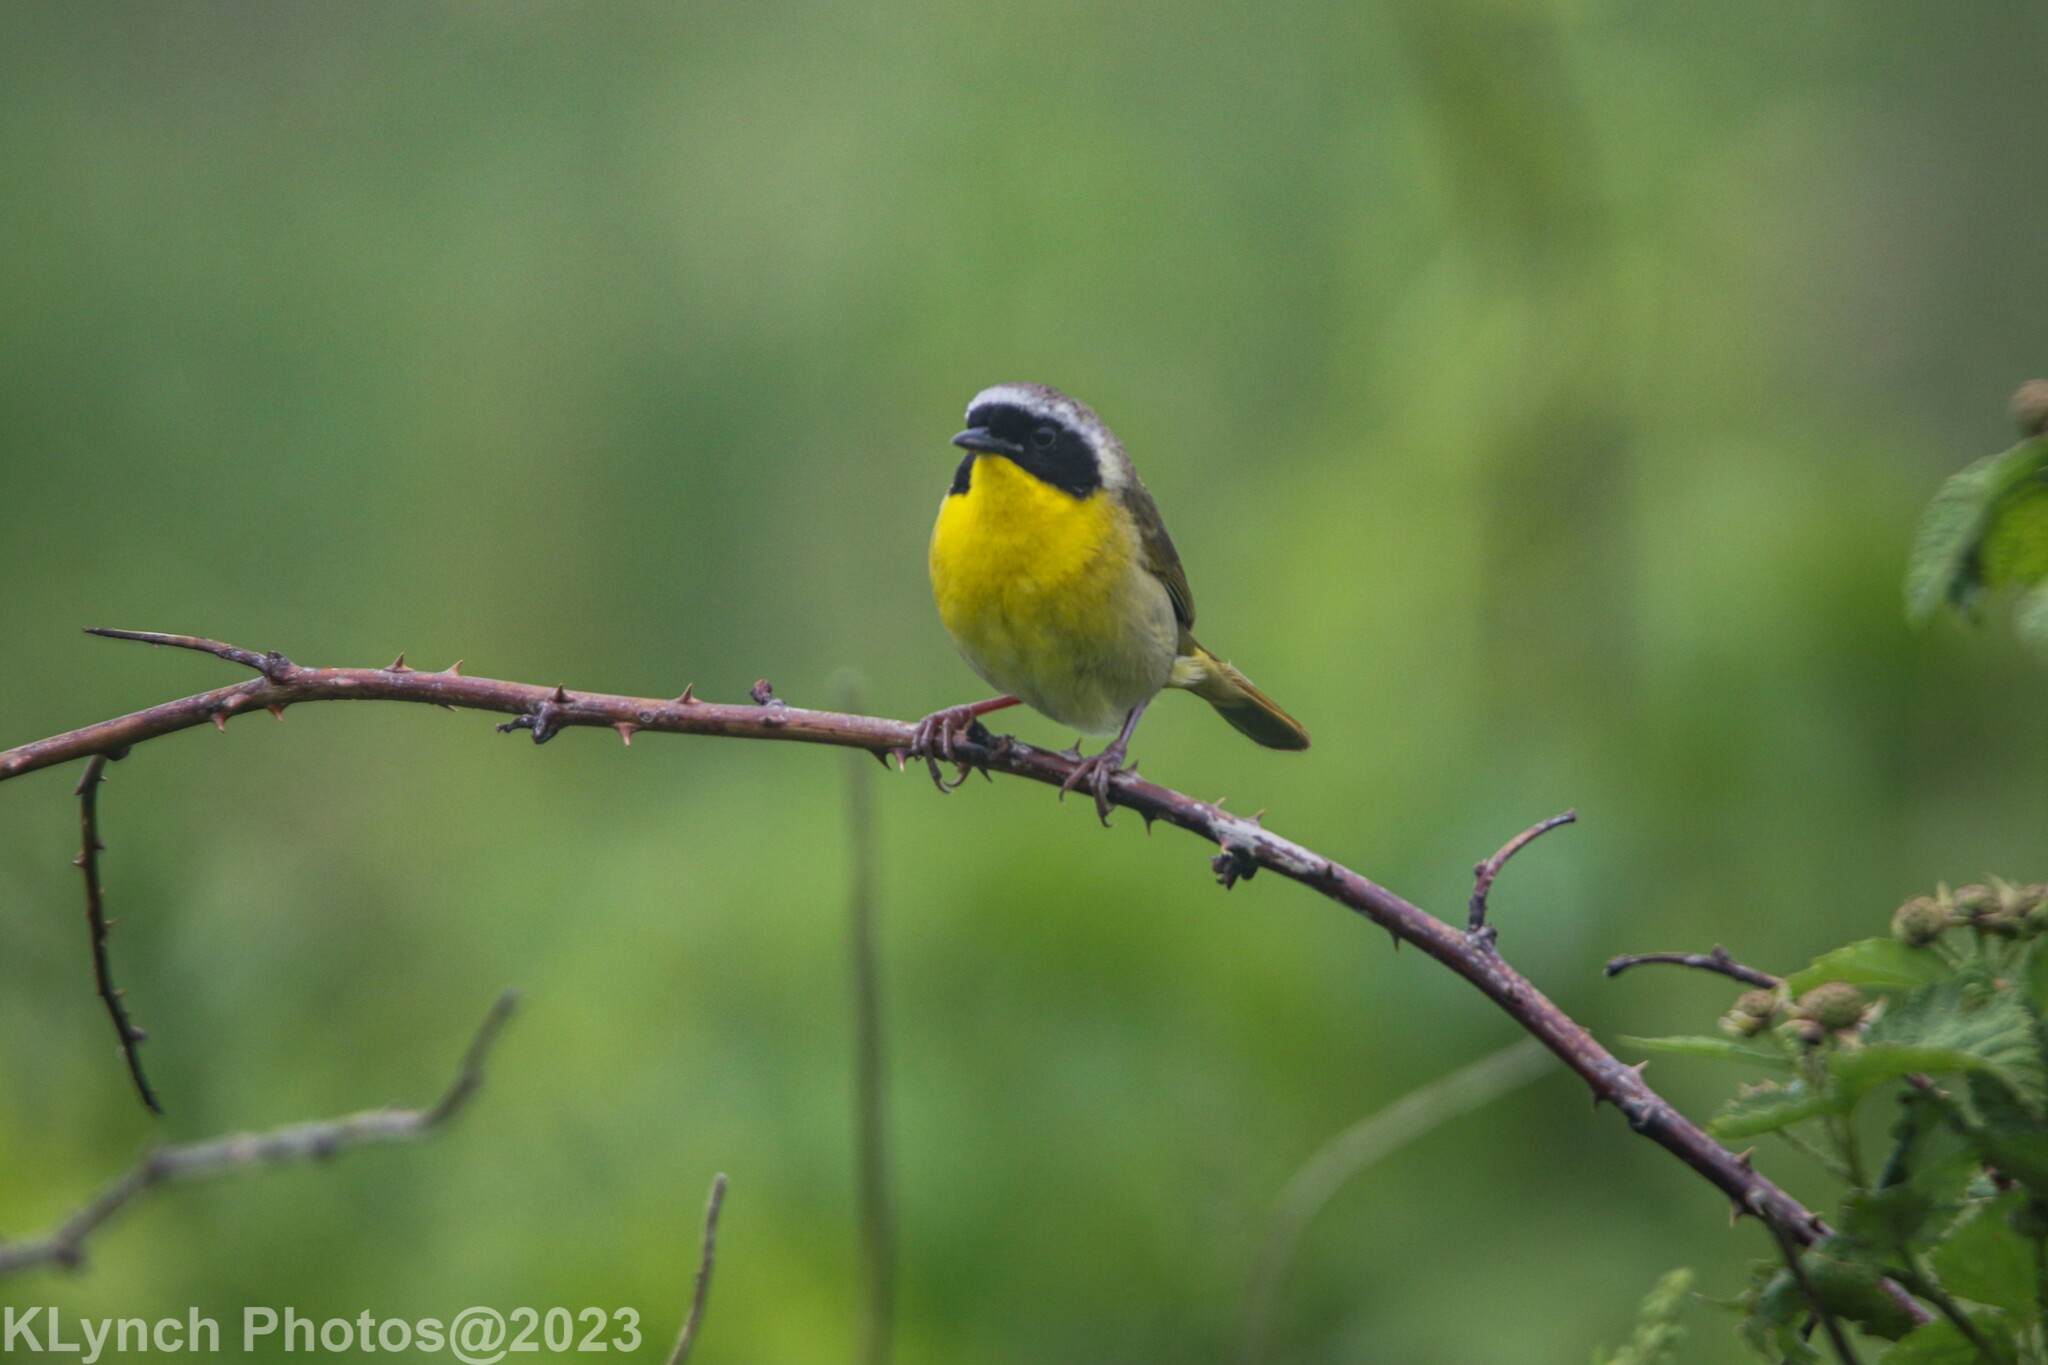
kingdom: Animalia
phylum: Chordata
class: Aves
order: Passeriformes
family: Parulidae
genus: Geothlypis
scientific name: Geothlypis trichas
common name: Common yellowthroat
